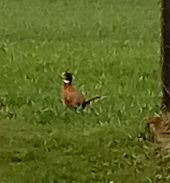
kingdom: Animalia
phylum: Chordata
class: Aves
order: Galliformes
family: Phasianidae
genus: Phasianus
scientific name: Phasianus colchicus
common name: Common pheasant
